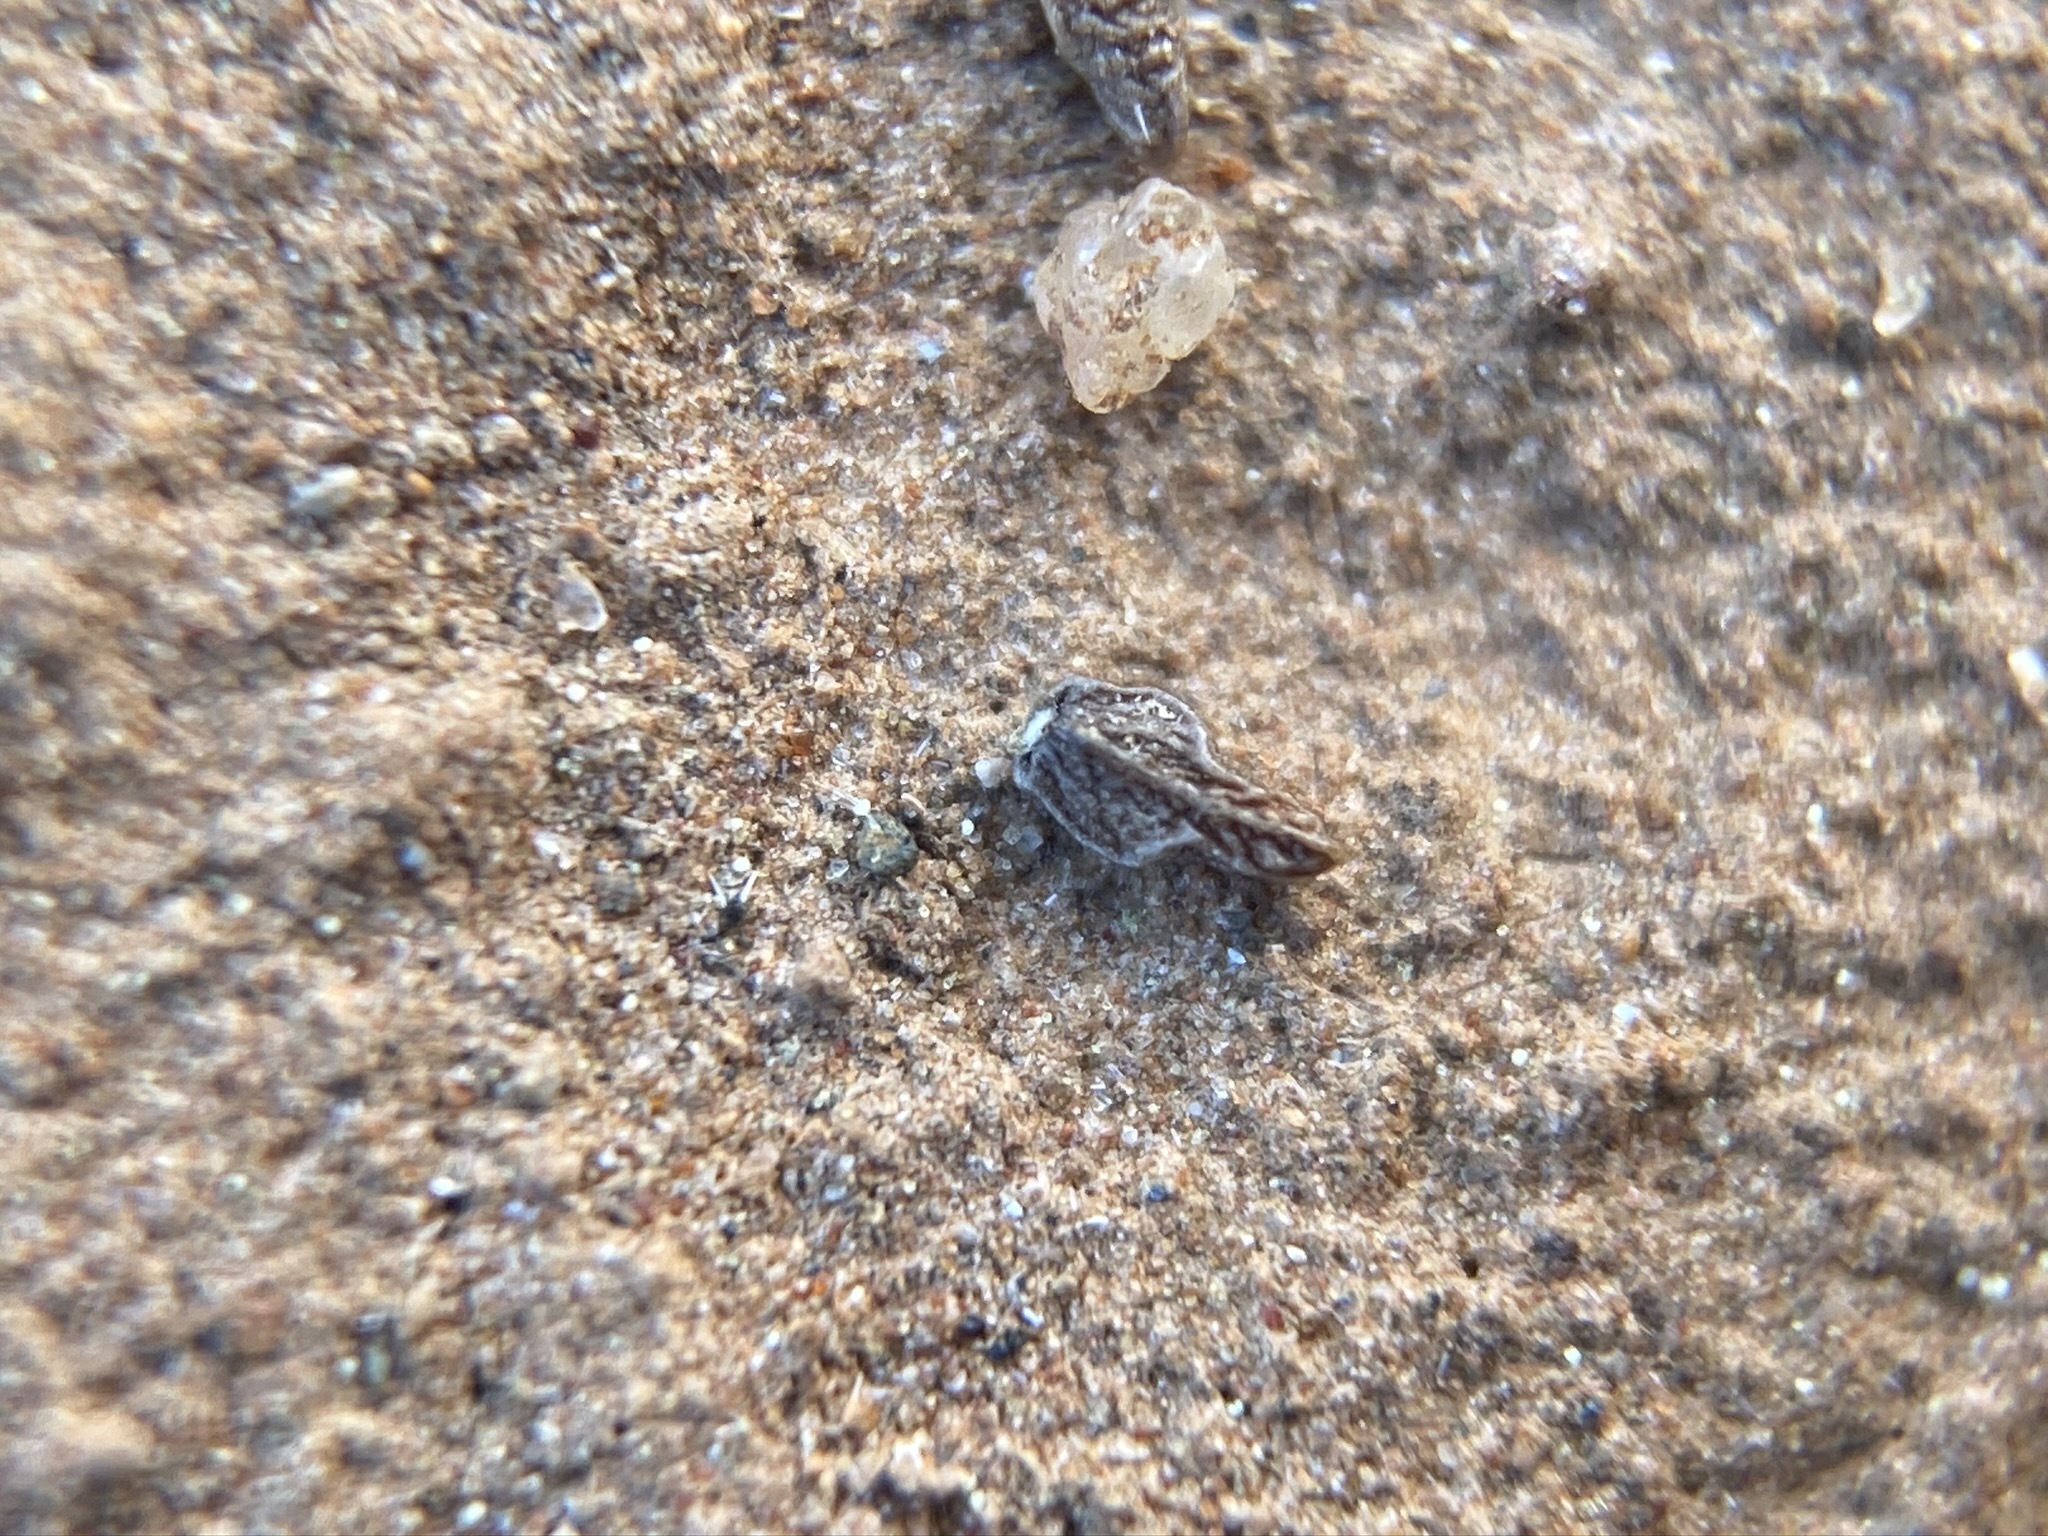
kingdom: Plantae
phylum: Tracheophyta
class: Magnoliopsida
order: Boraginales
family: Boraginaceae
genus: Plagiobothrys
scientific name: Plagiobothrys stipitatus
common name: Stipitate forget-me-not
